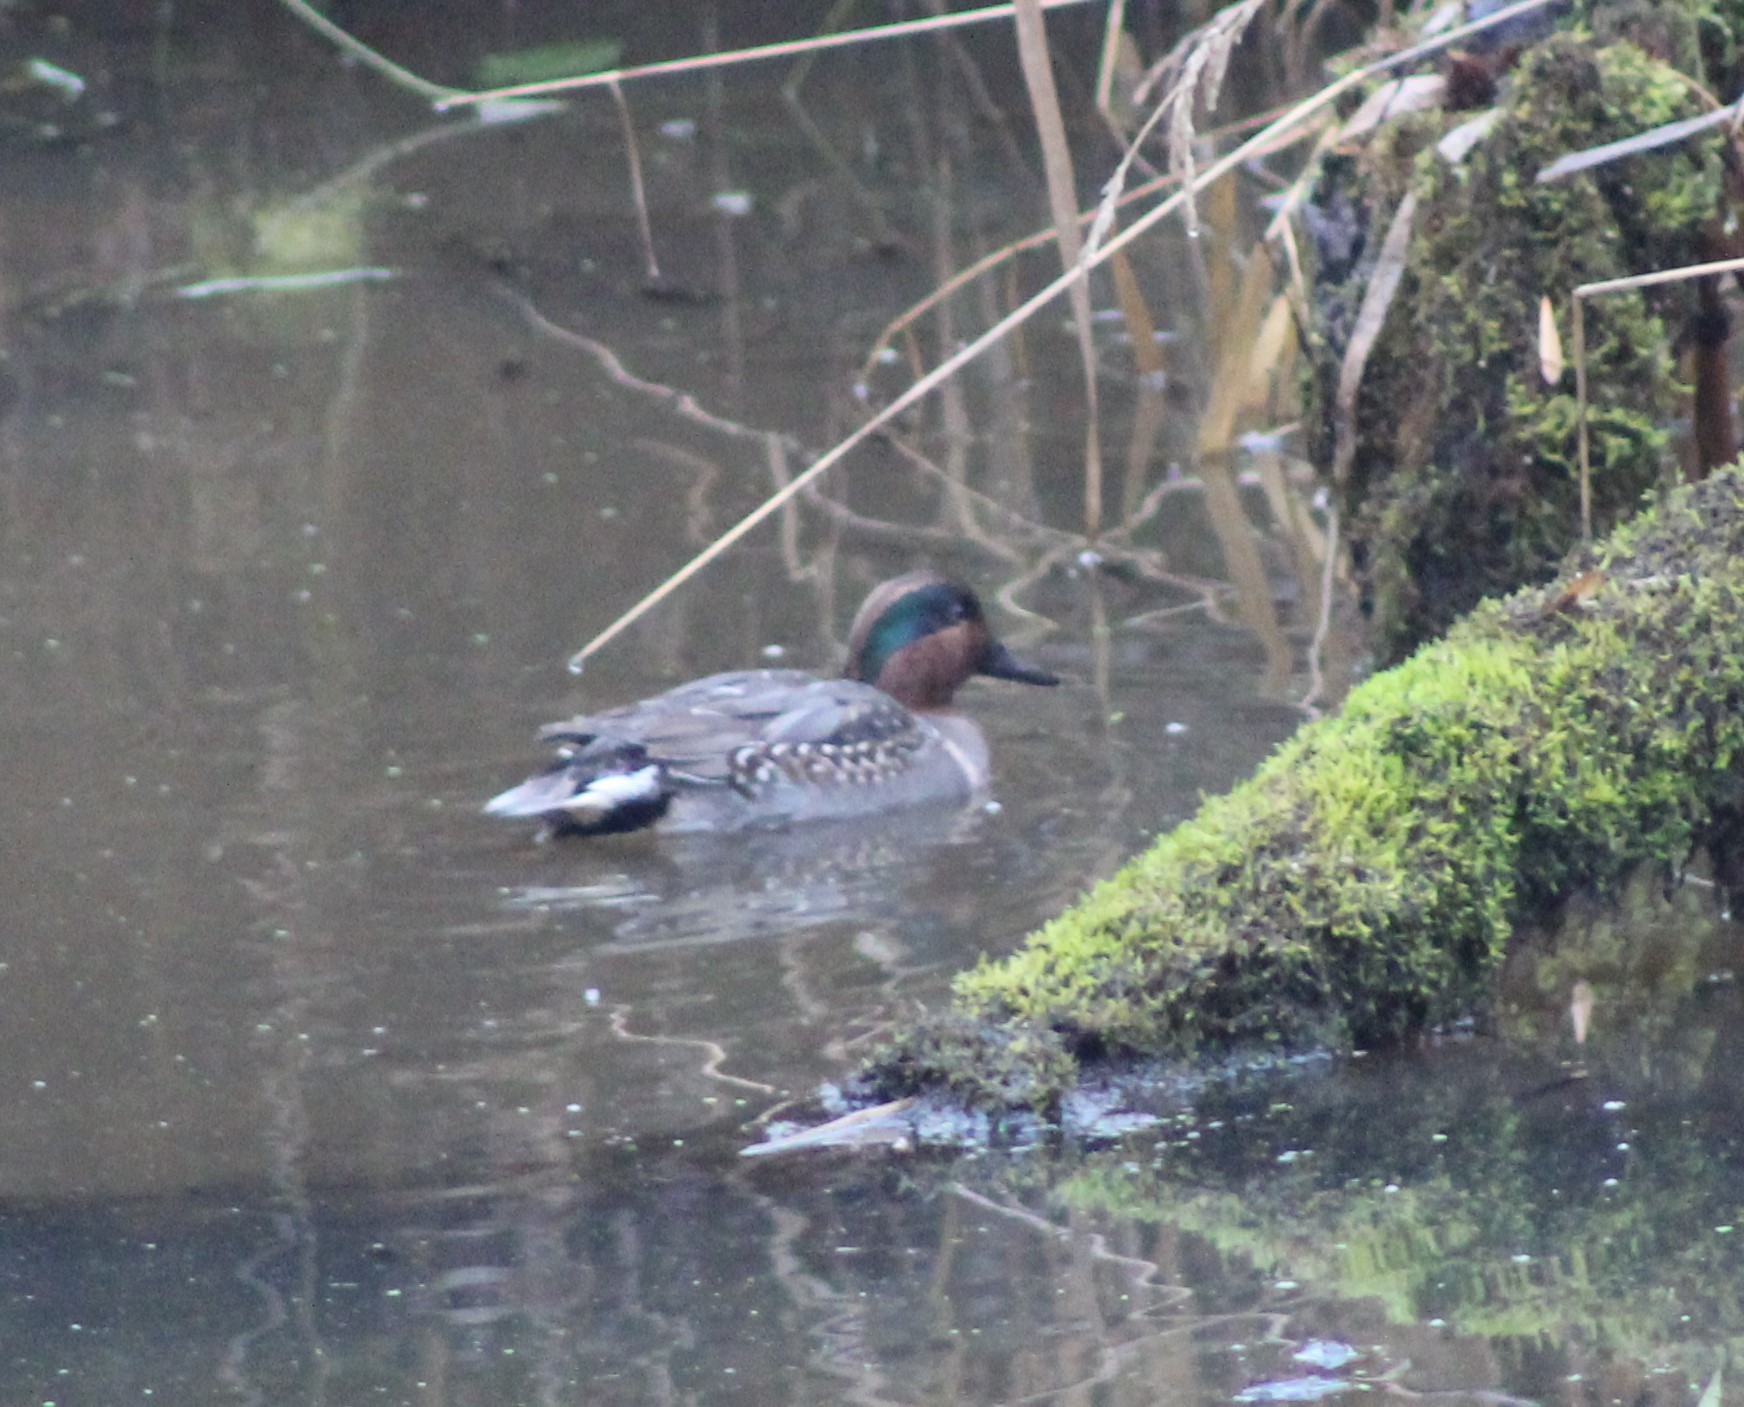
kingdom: Animalia
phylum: Chordata
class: Aves
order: Anseriformes
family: Anatidae
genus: Anas
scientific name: Anas carolinensis
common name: Green-winged teal
